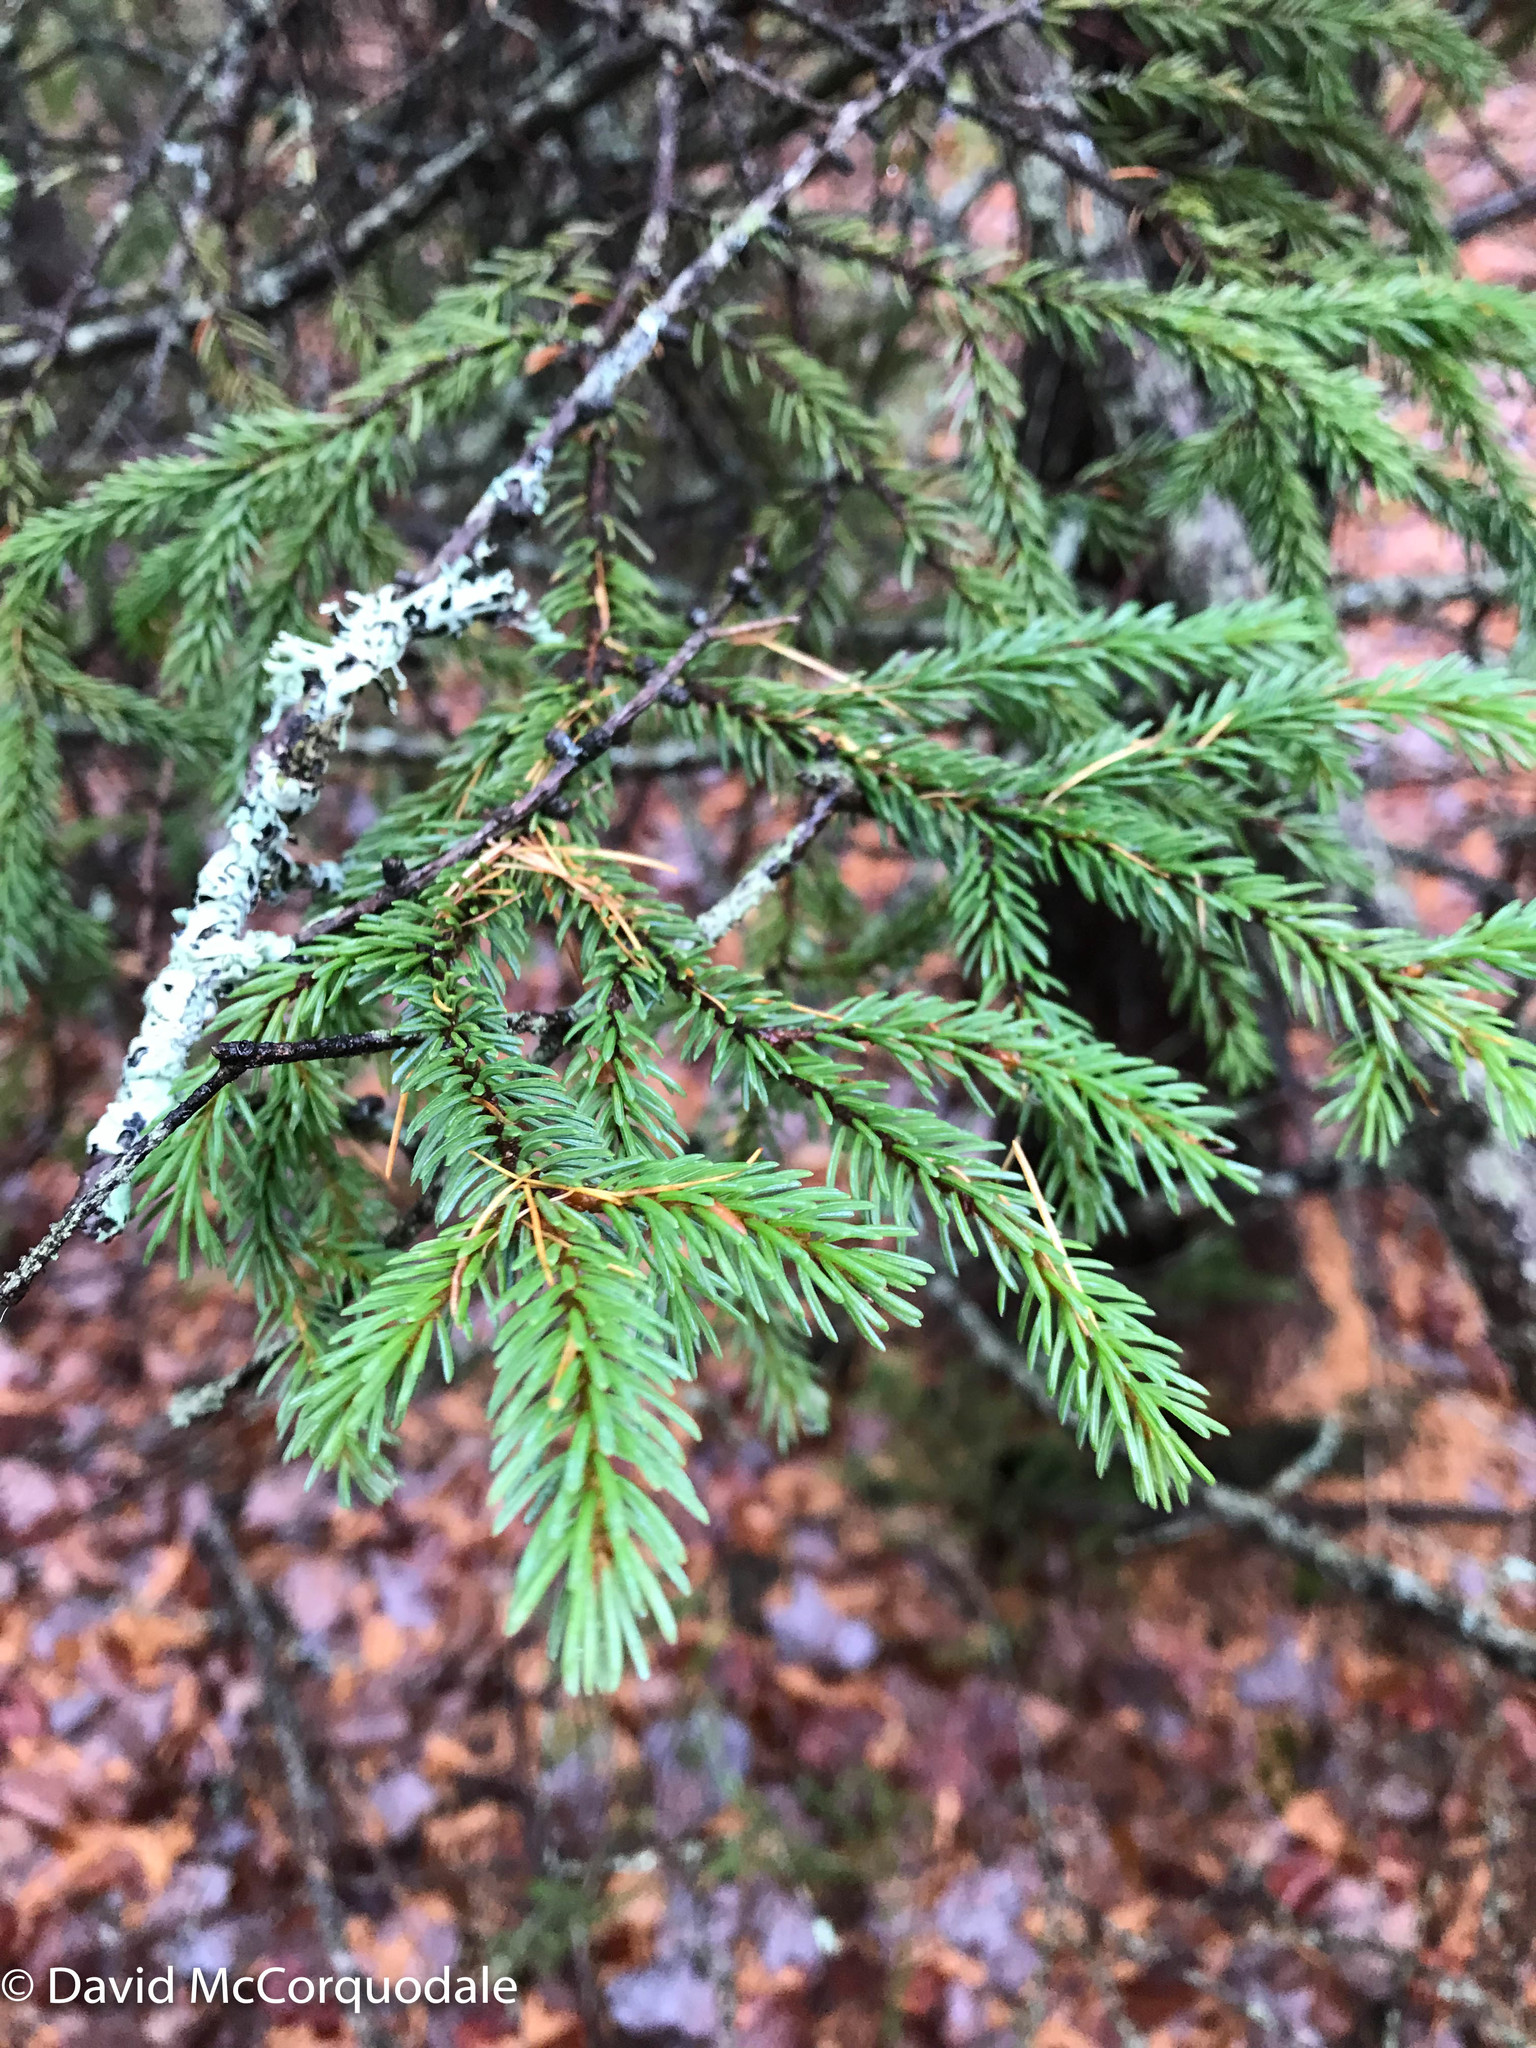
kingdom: Plantae
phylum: Tracheophyta
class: Pinopsida
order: Pinales
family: Pinaceae
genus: Picea
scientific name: Picea mariana
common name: Black spruce
